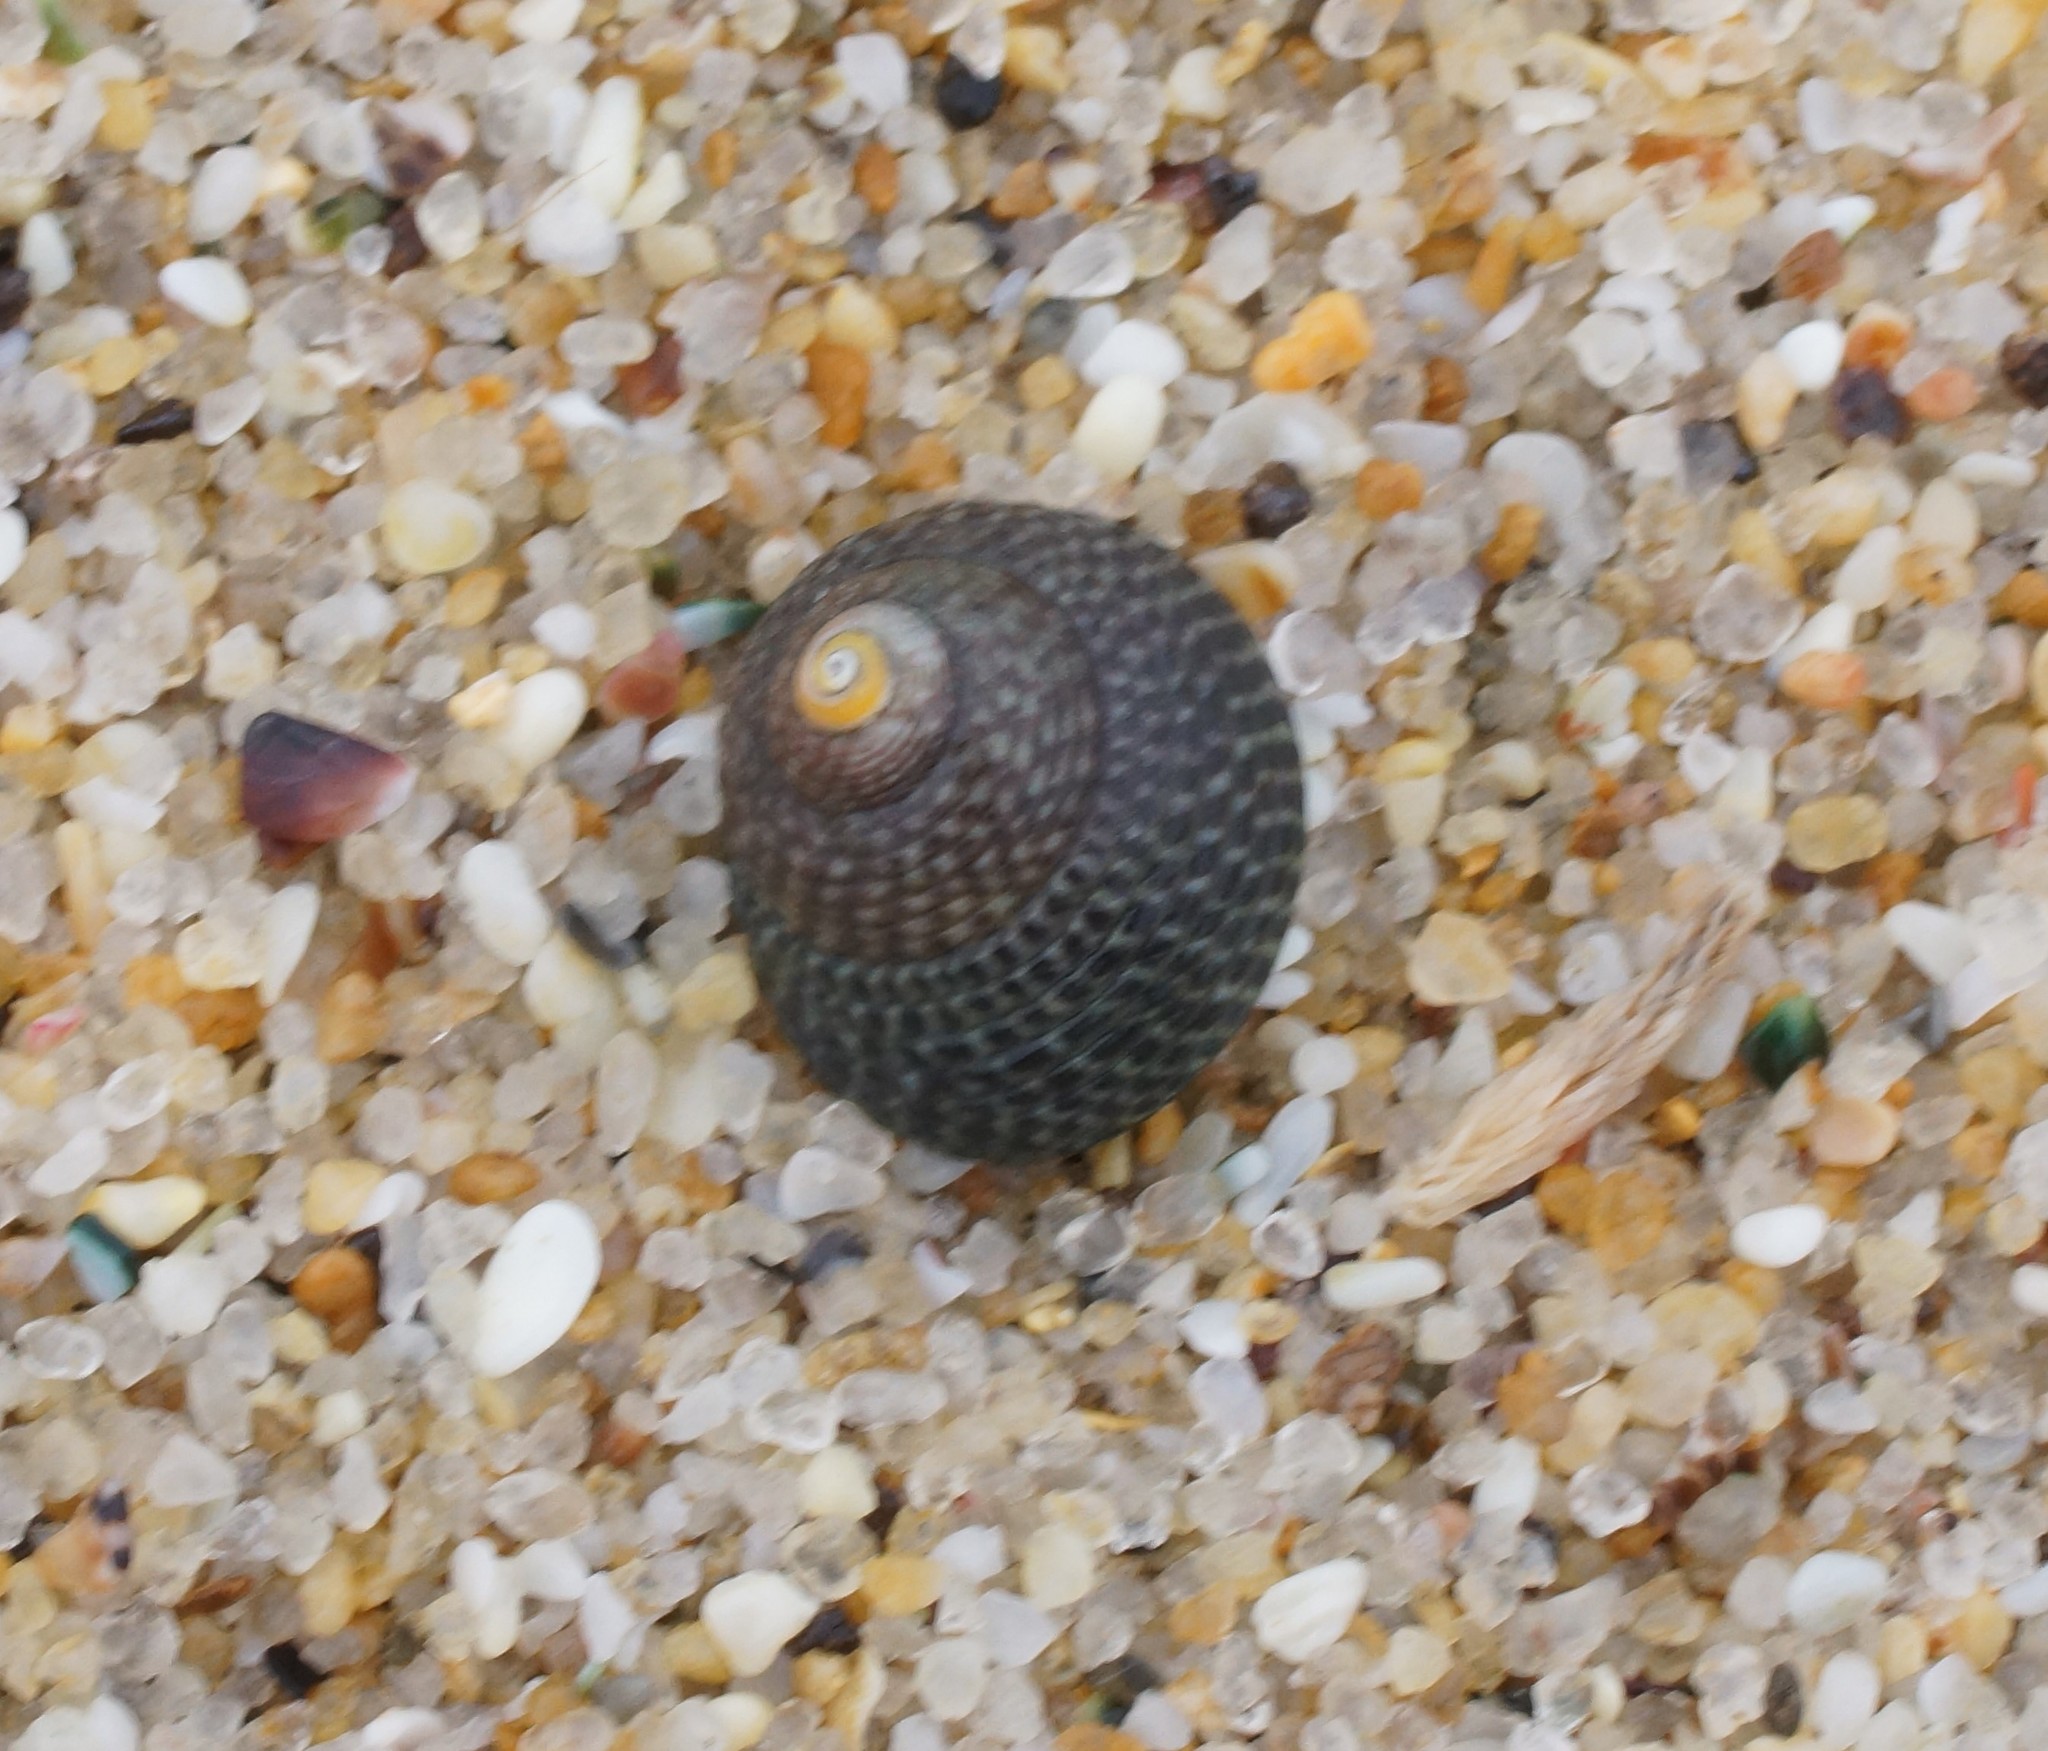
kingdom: Animalia
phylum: Mollusca
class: Gastropoda
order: Trochida
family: Trochidae
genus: Chlorodiloma
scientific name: Chlorodiloma adelaidae
